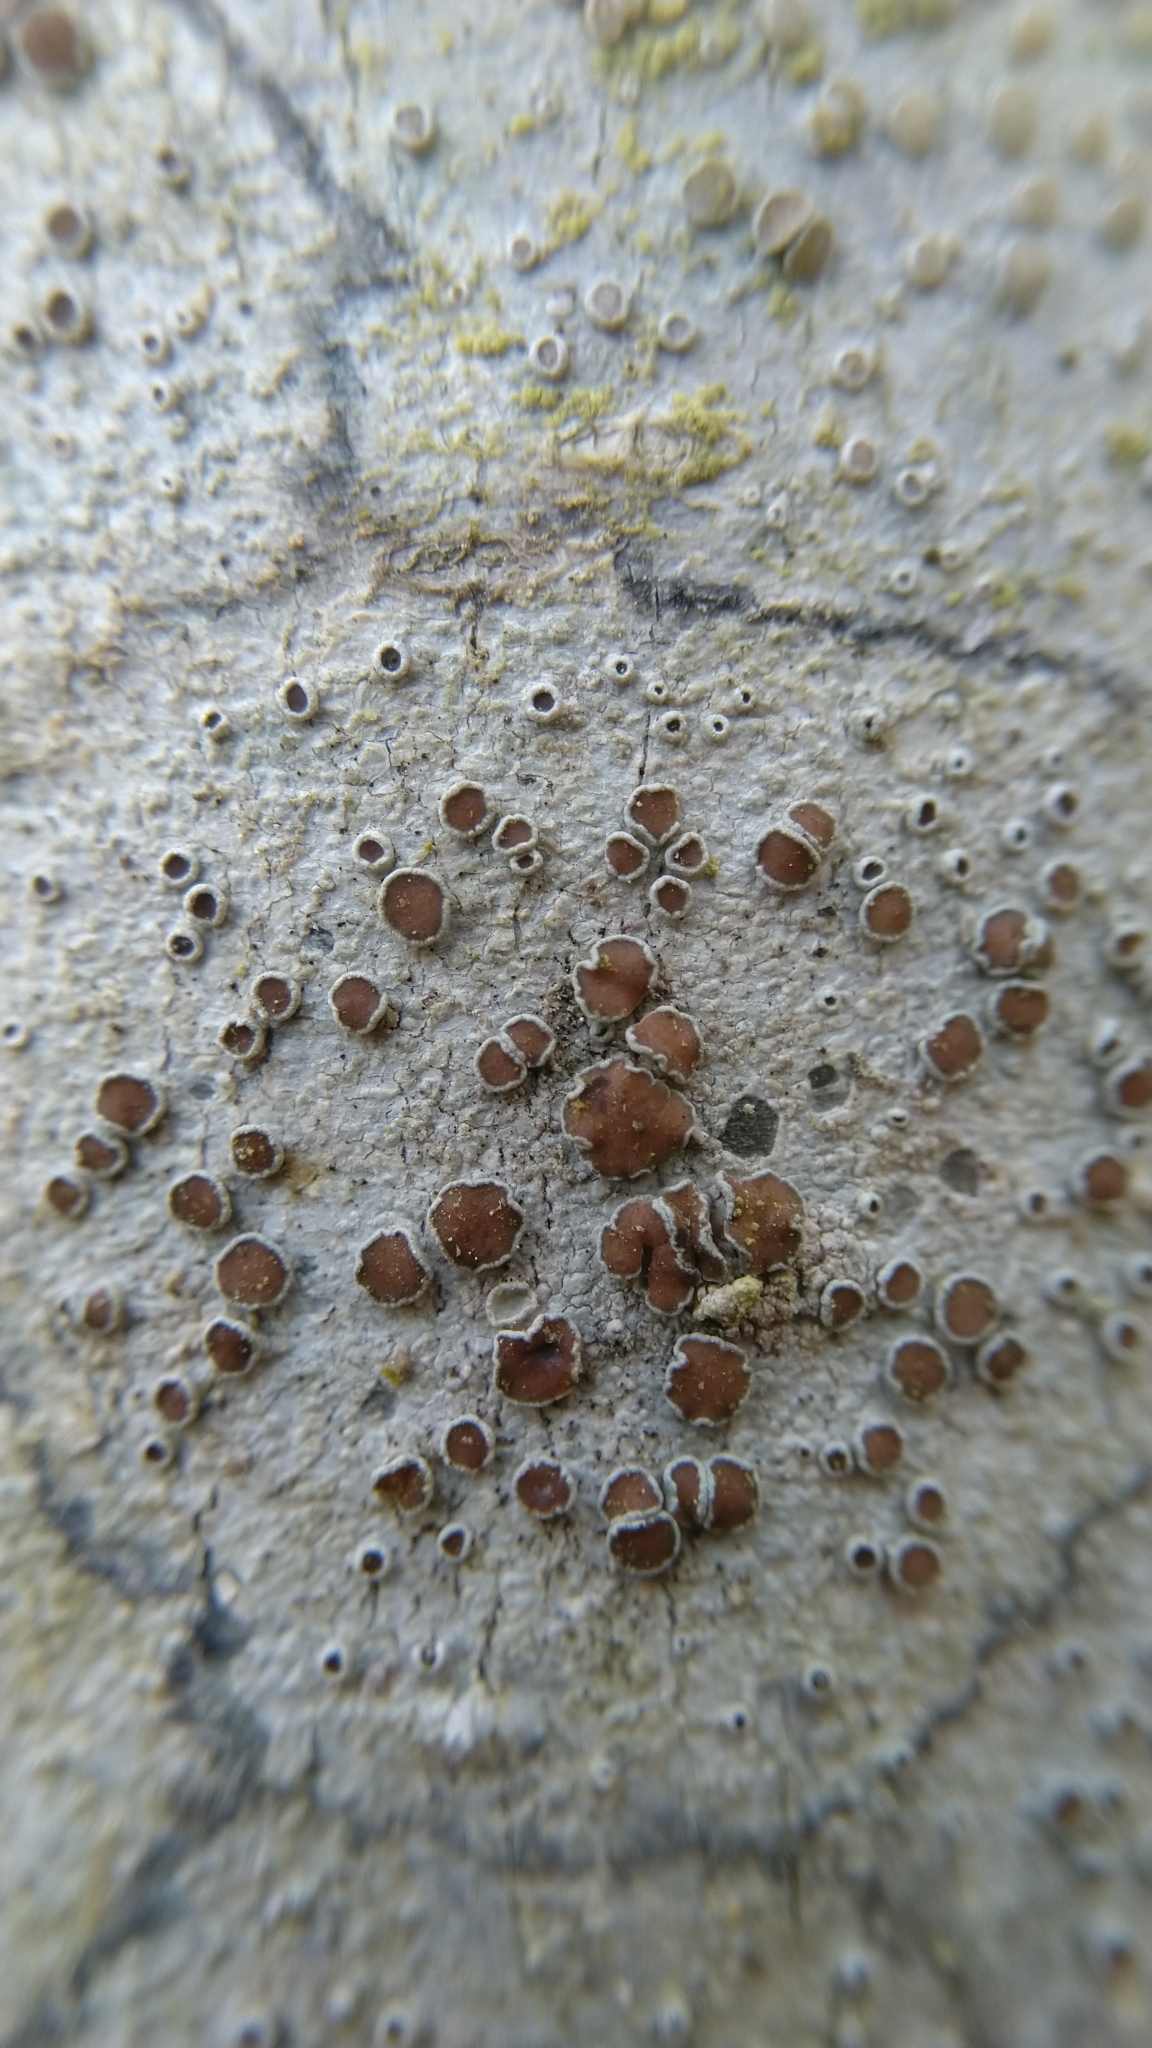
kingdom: Fungi
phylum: Ascomycota
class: Lecanoromycetes
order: Lecanorales
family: Lecanoraceae
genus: Lecanora
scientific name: Lecanora
